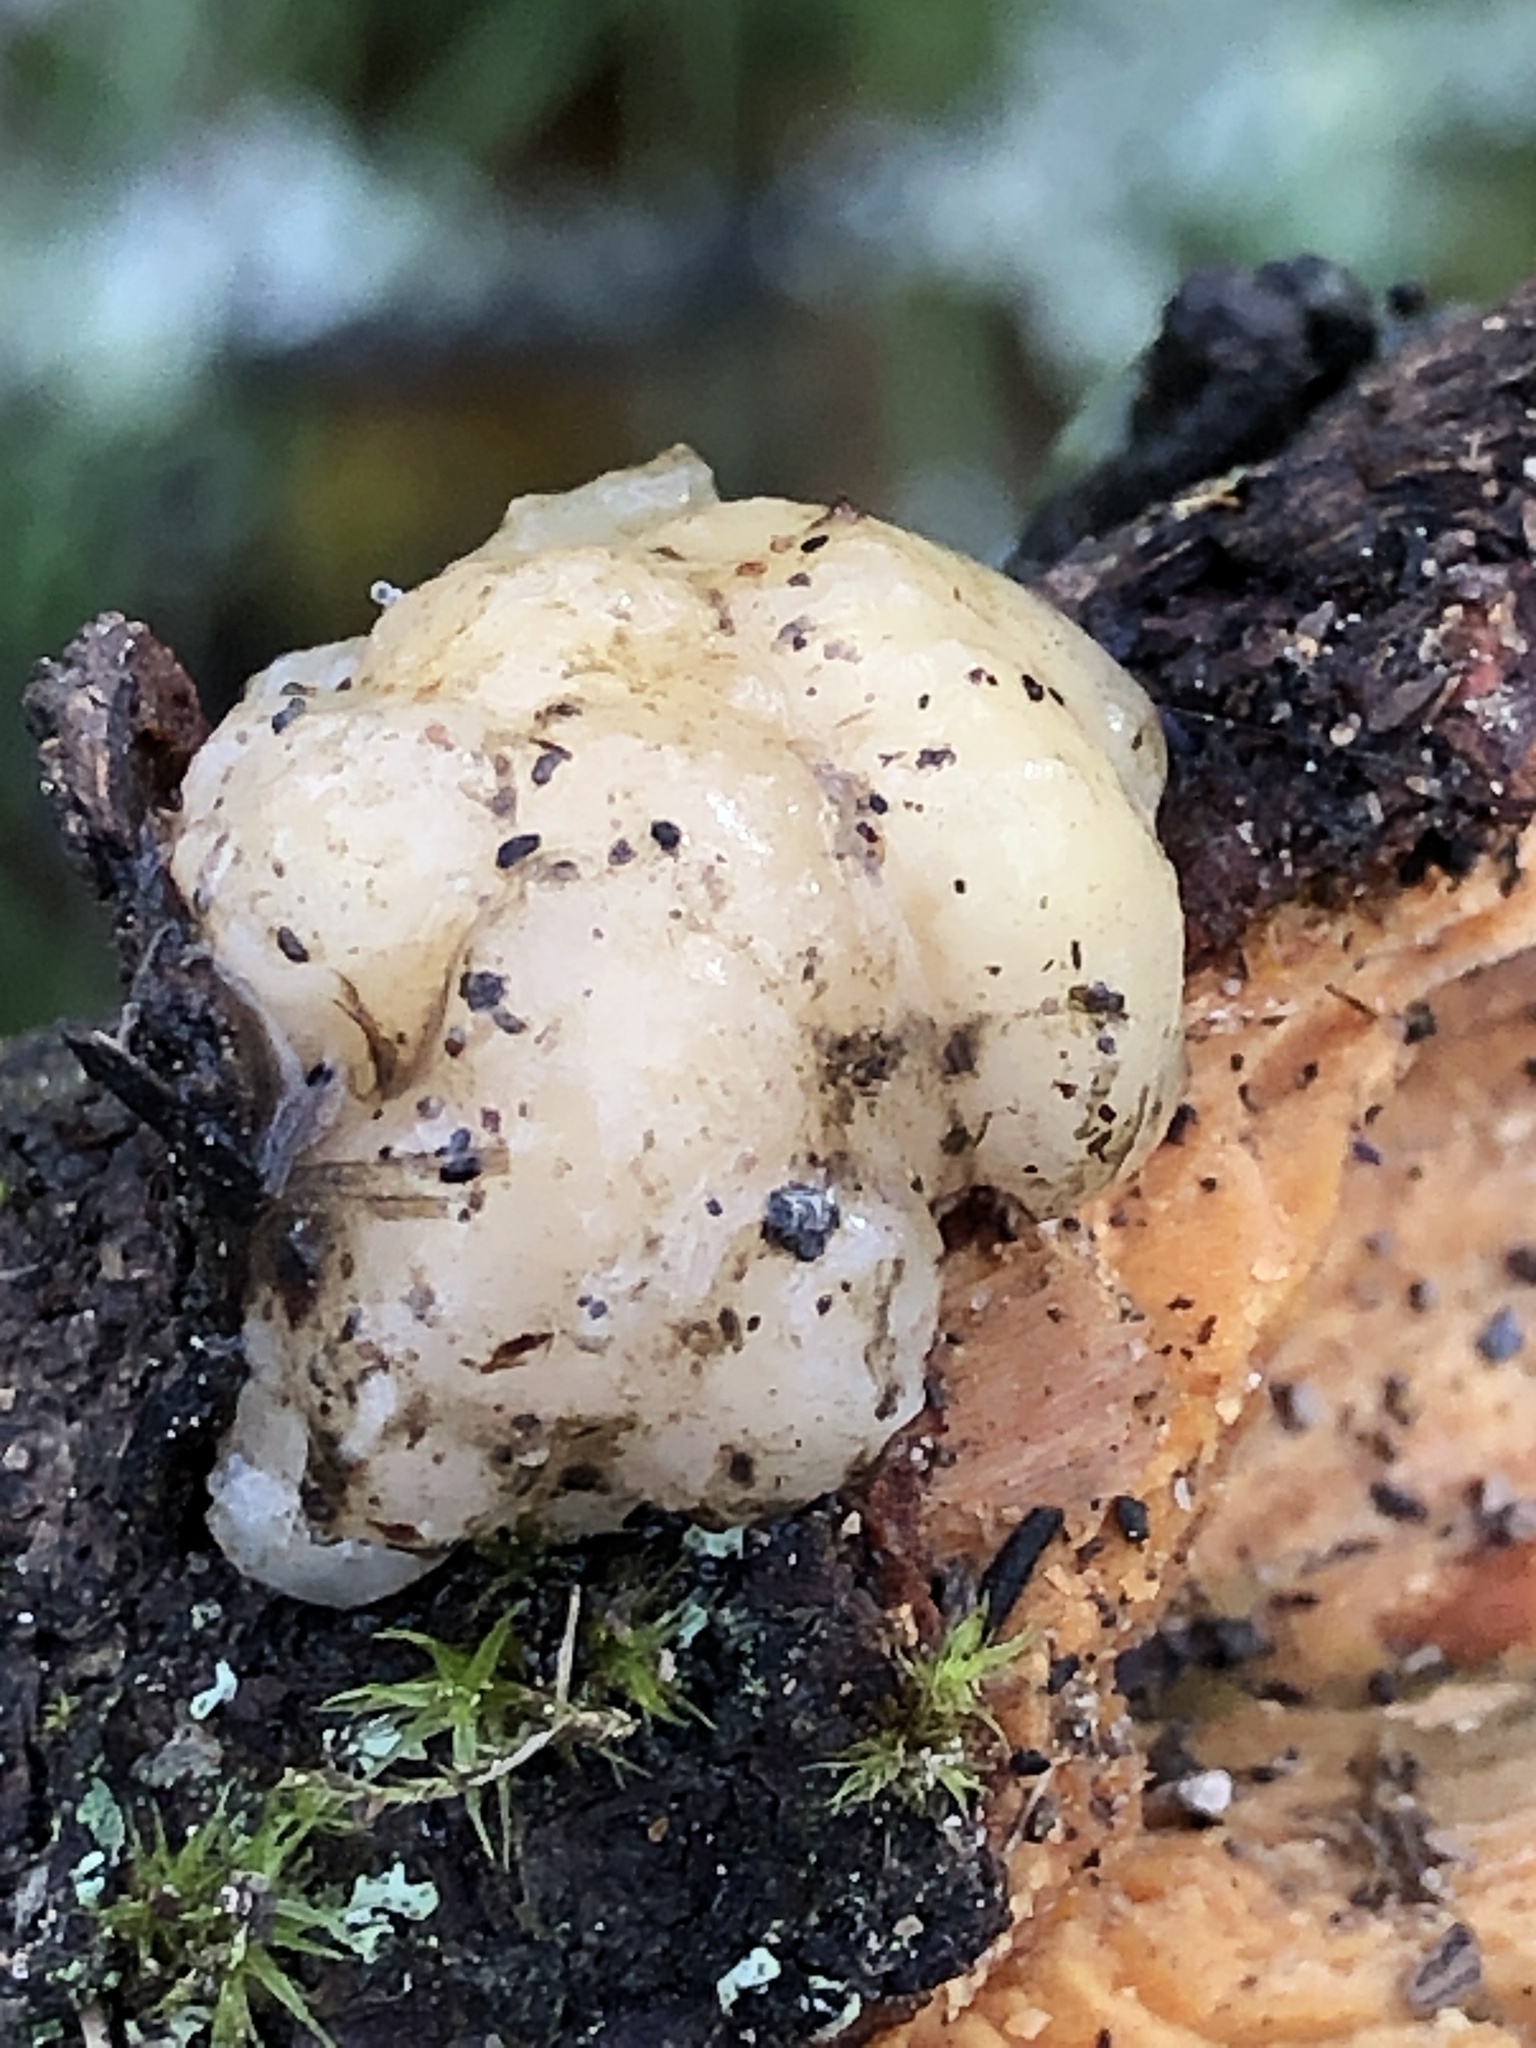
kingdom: Fungi
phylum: Basidiomycota
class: Tremellomycetes
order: Tremellales
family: Naemateliaceae
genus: Naematelia
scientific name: Naematelia encephala
